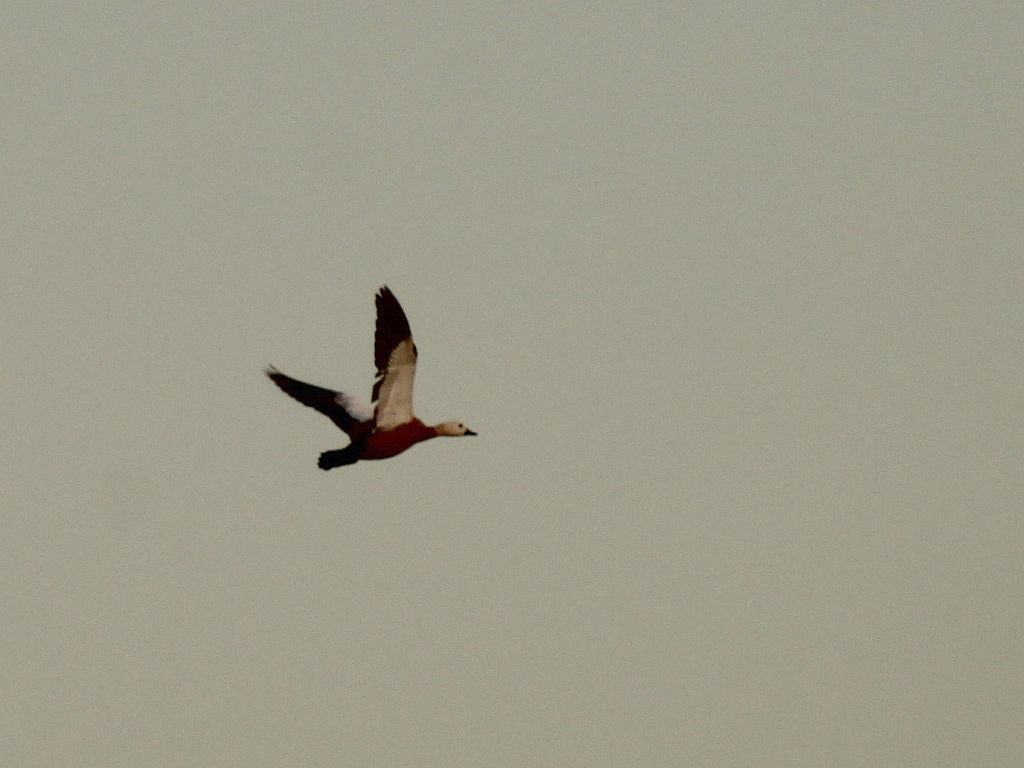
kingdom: Animalia
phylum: Chordata
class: Aves
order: Anseriformes
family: Anatidae
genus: Tadorna
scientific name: Tadorna ferruginea
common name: Ruddy shelduck
